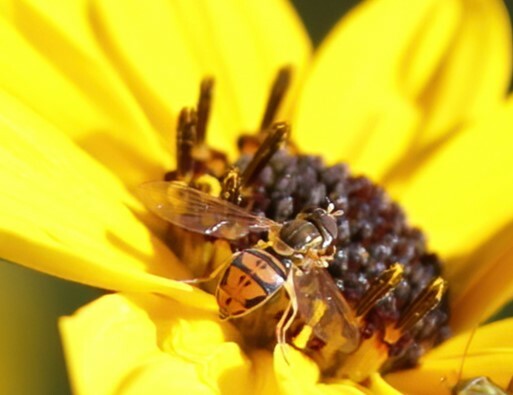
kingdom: Animalia
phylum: Arthropoda
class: Insecta
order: Diptera
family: Syrphidae
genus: Toxomerus
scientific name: Toxomerus marginatus
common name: Syrphid fly
